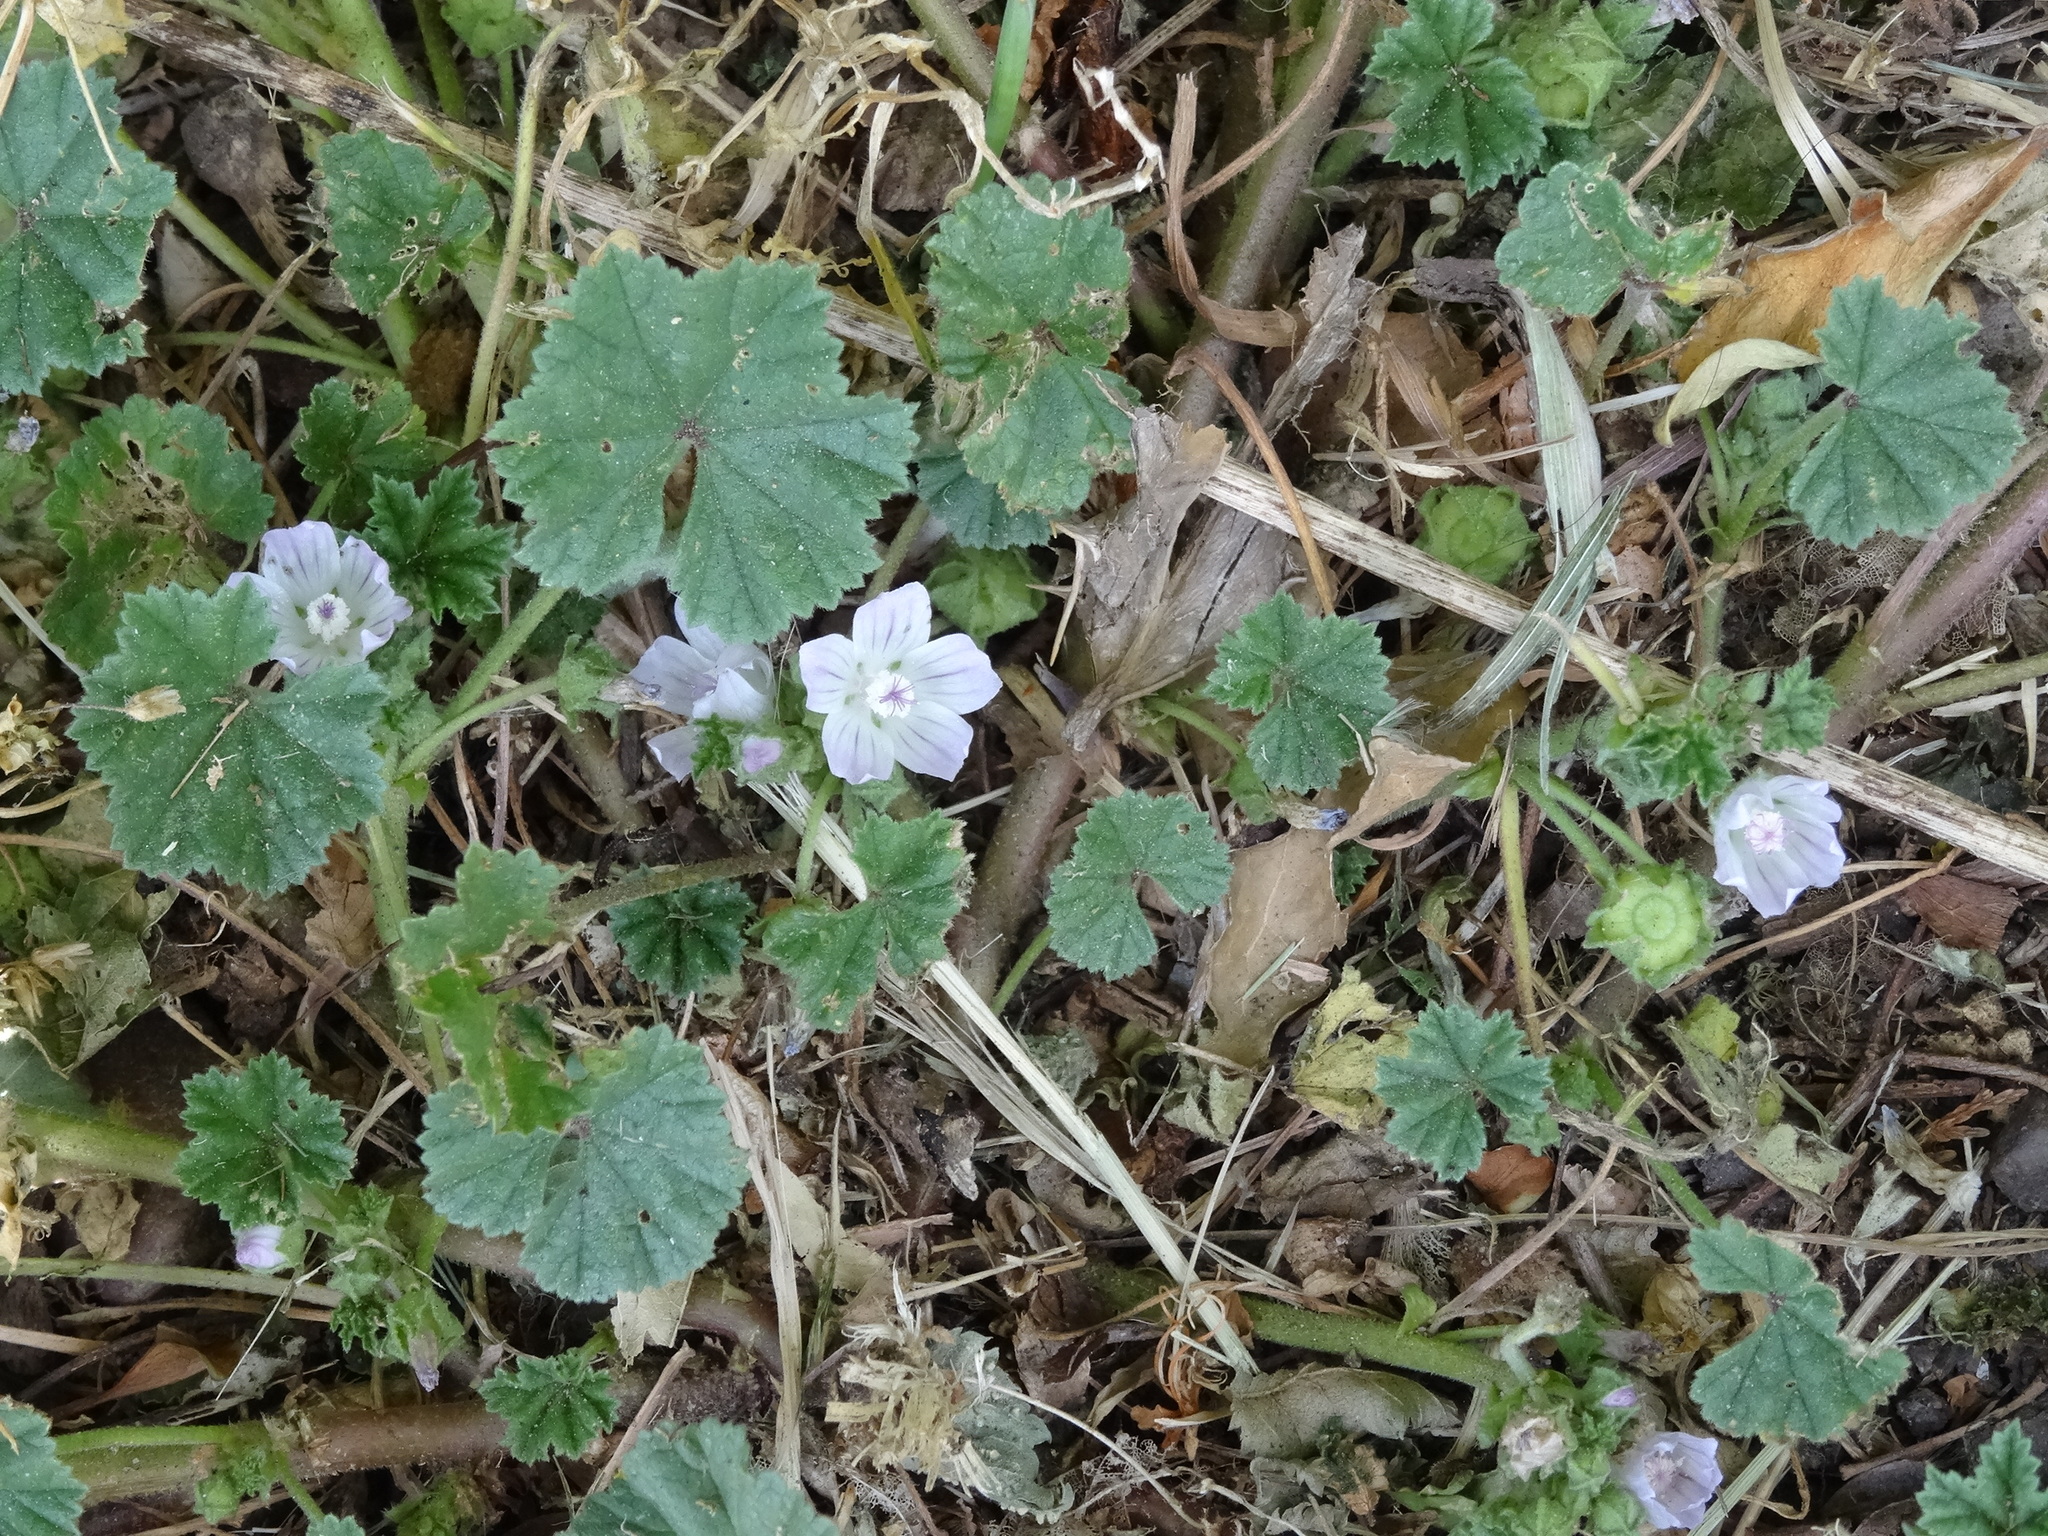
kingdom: Plantae
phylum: Tracheophyta
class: Magnoliopsida
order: Malvales
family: Malvaceae
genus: Malva
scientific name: Malva neglecta
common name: Common mallow
